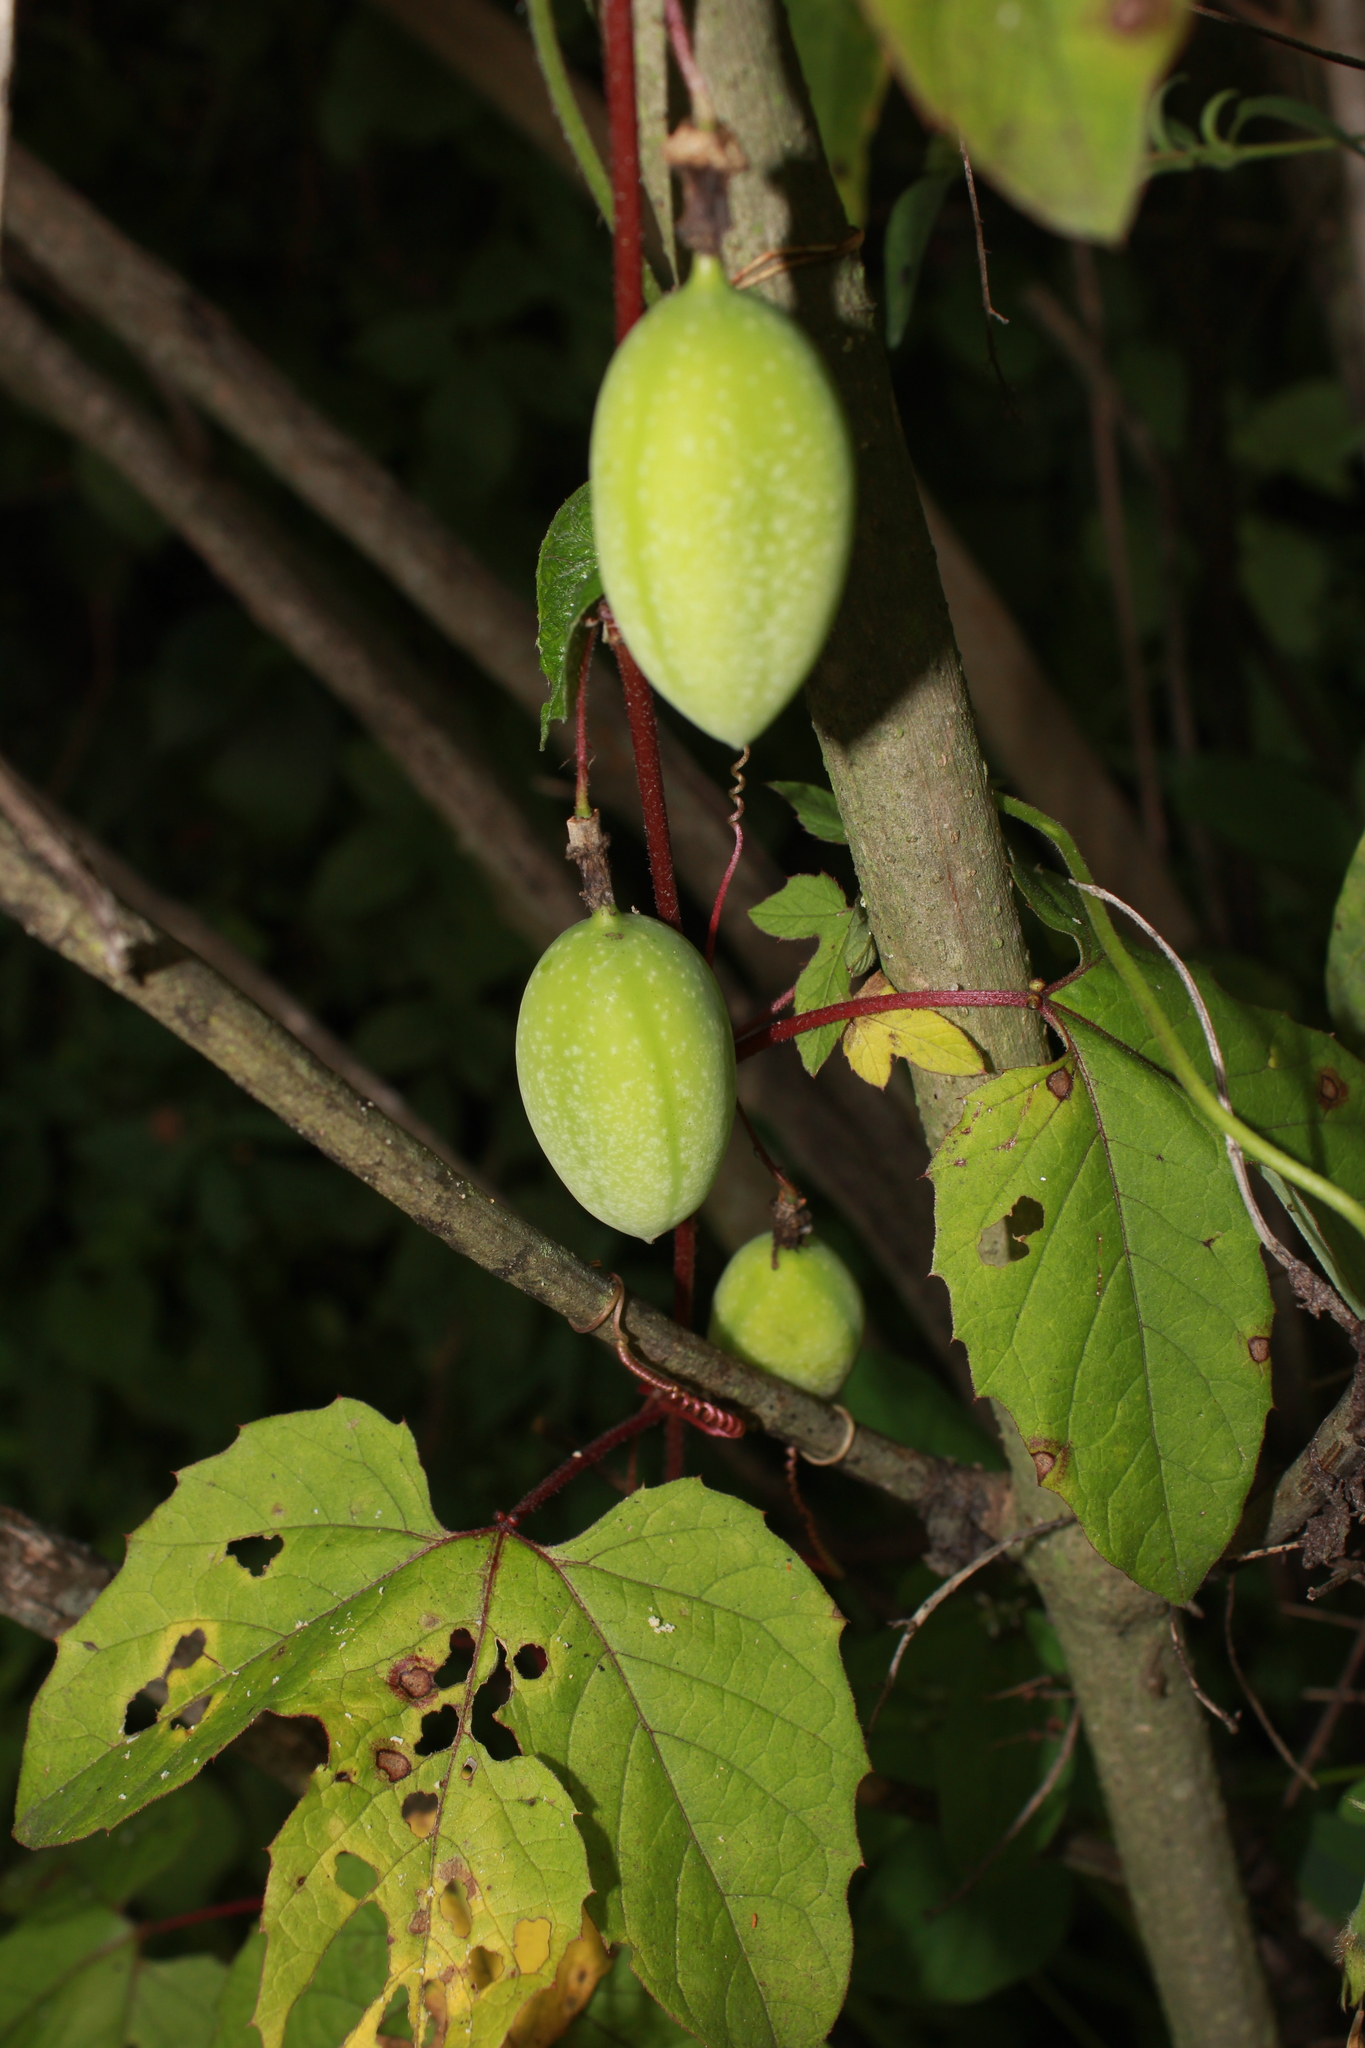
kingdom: Plantae
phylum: Tracheophyta
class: Magnoliopsida
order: Malpighiales
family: Passifloraceae
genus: Passiflora
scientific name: Passiflora bryonioides
